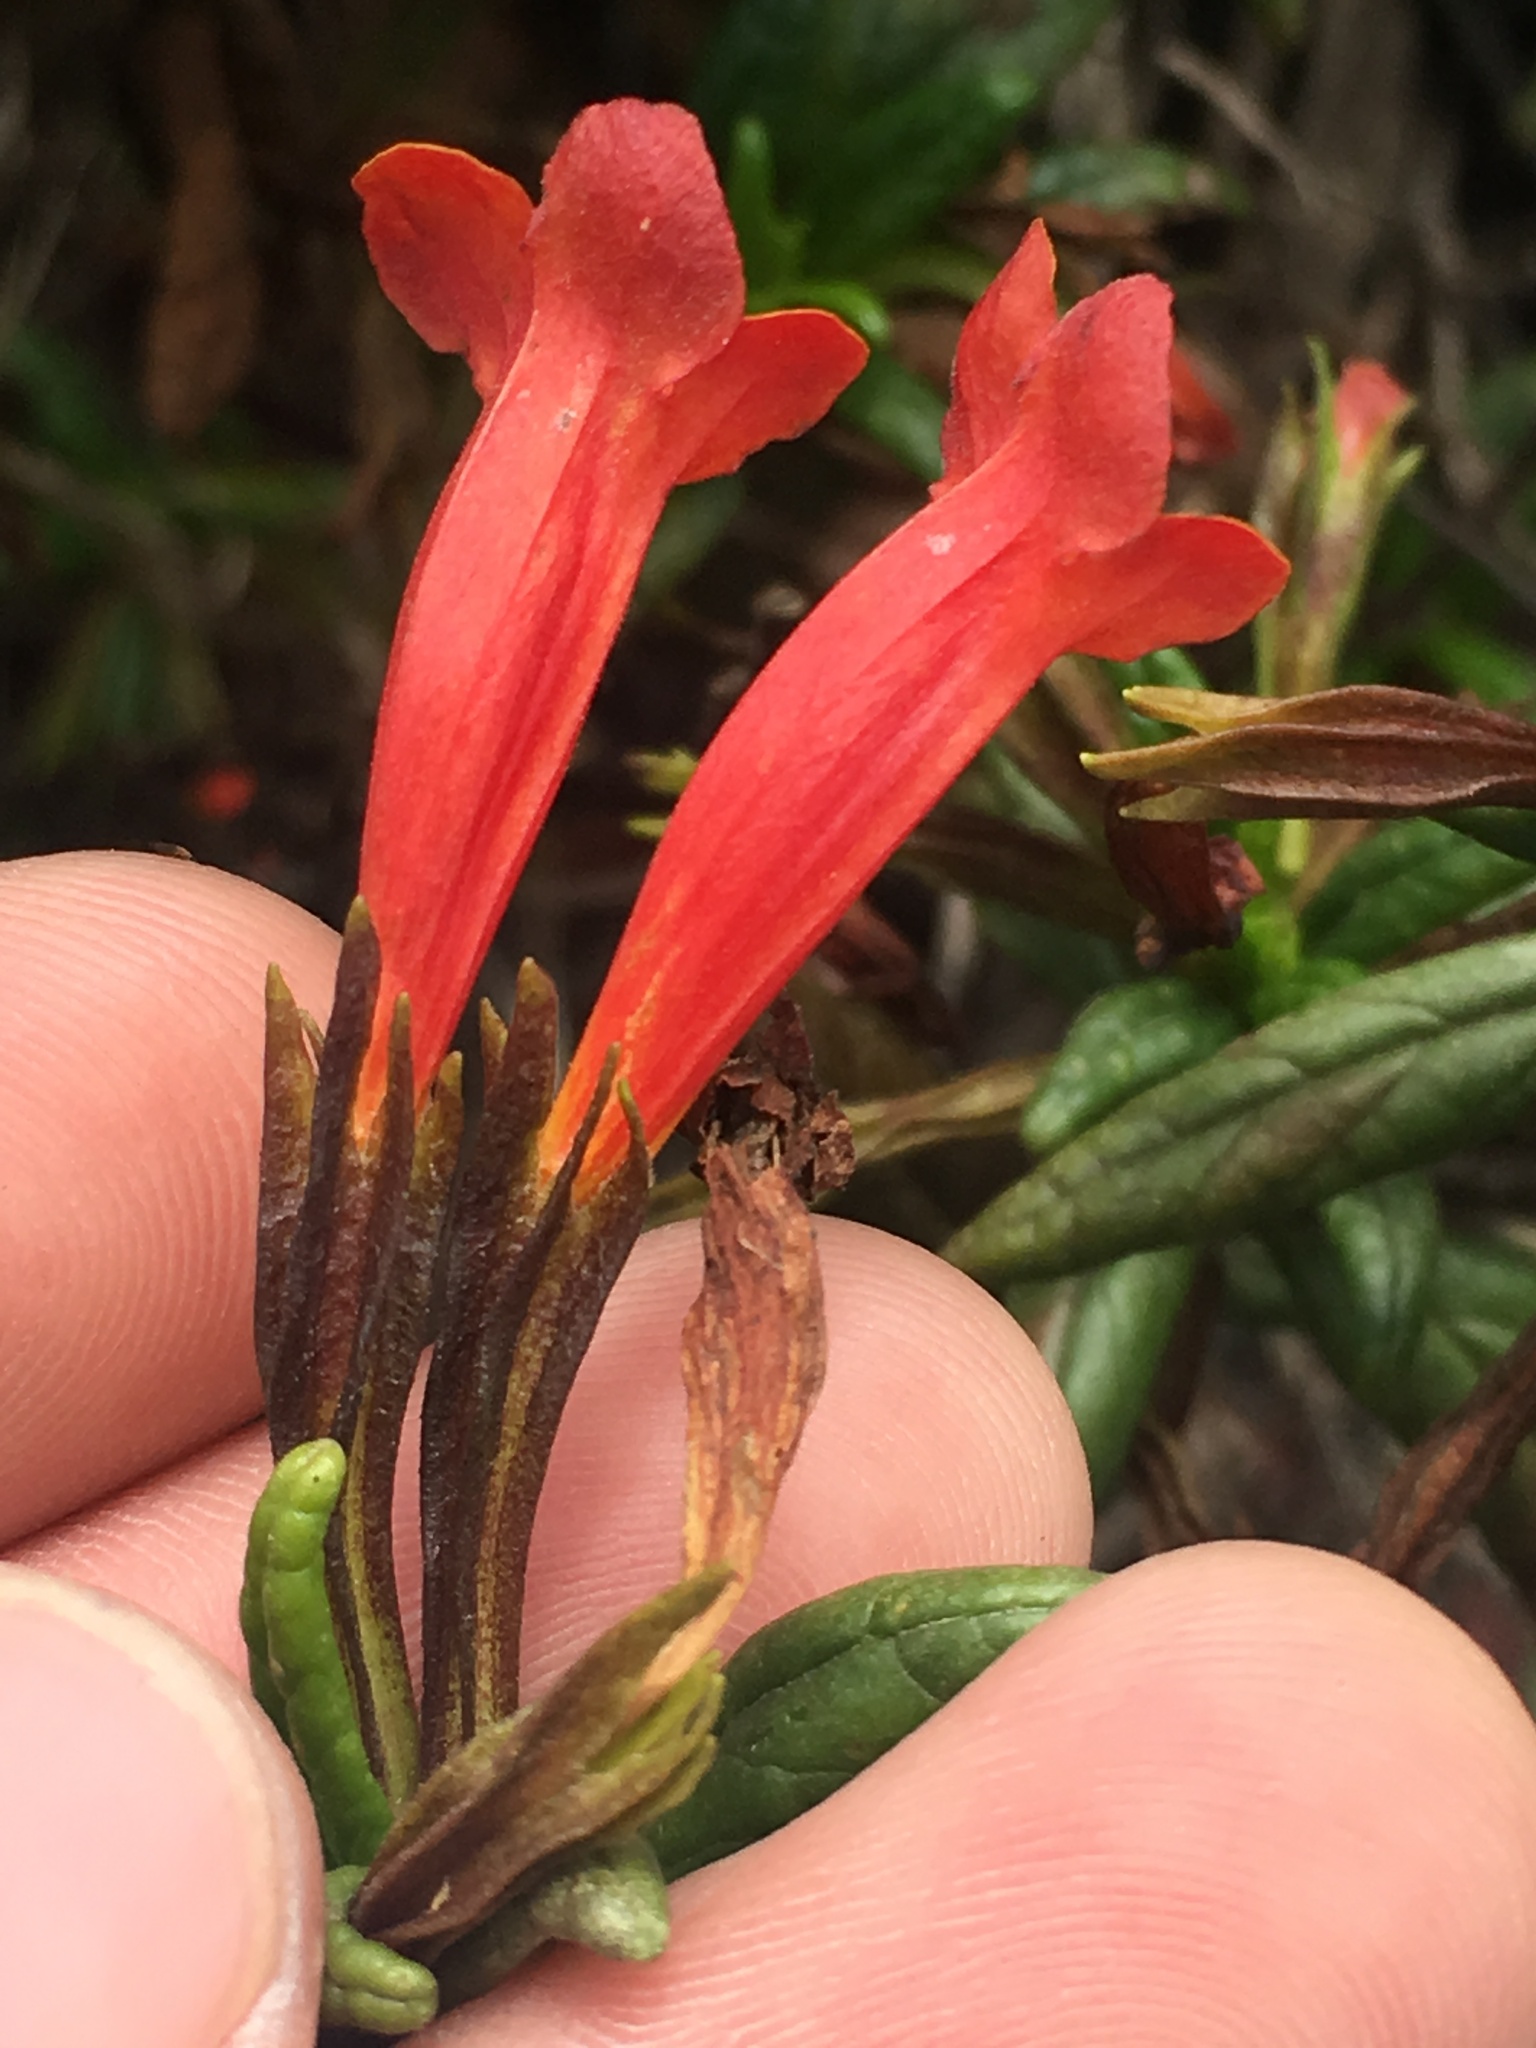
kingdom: Plantae
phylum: Tracheophyta
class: Magnoliopsida
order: Lamiales
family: Phrymaceae
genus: Diplacus
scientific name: Diplacus parviflorus
